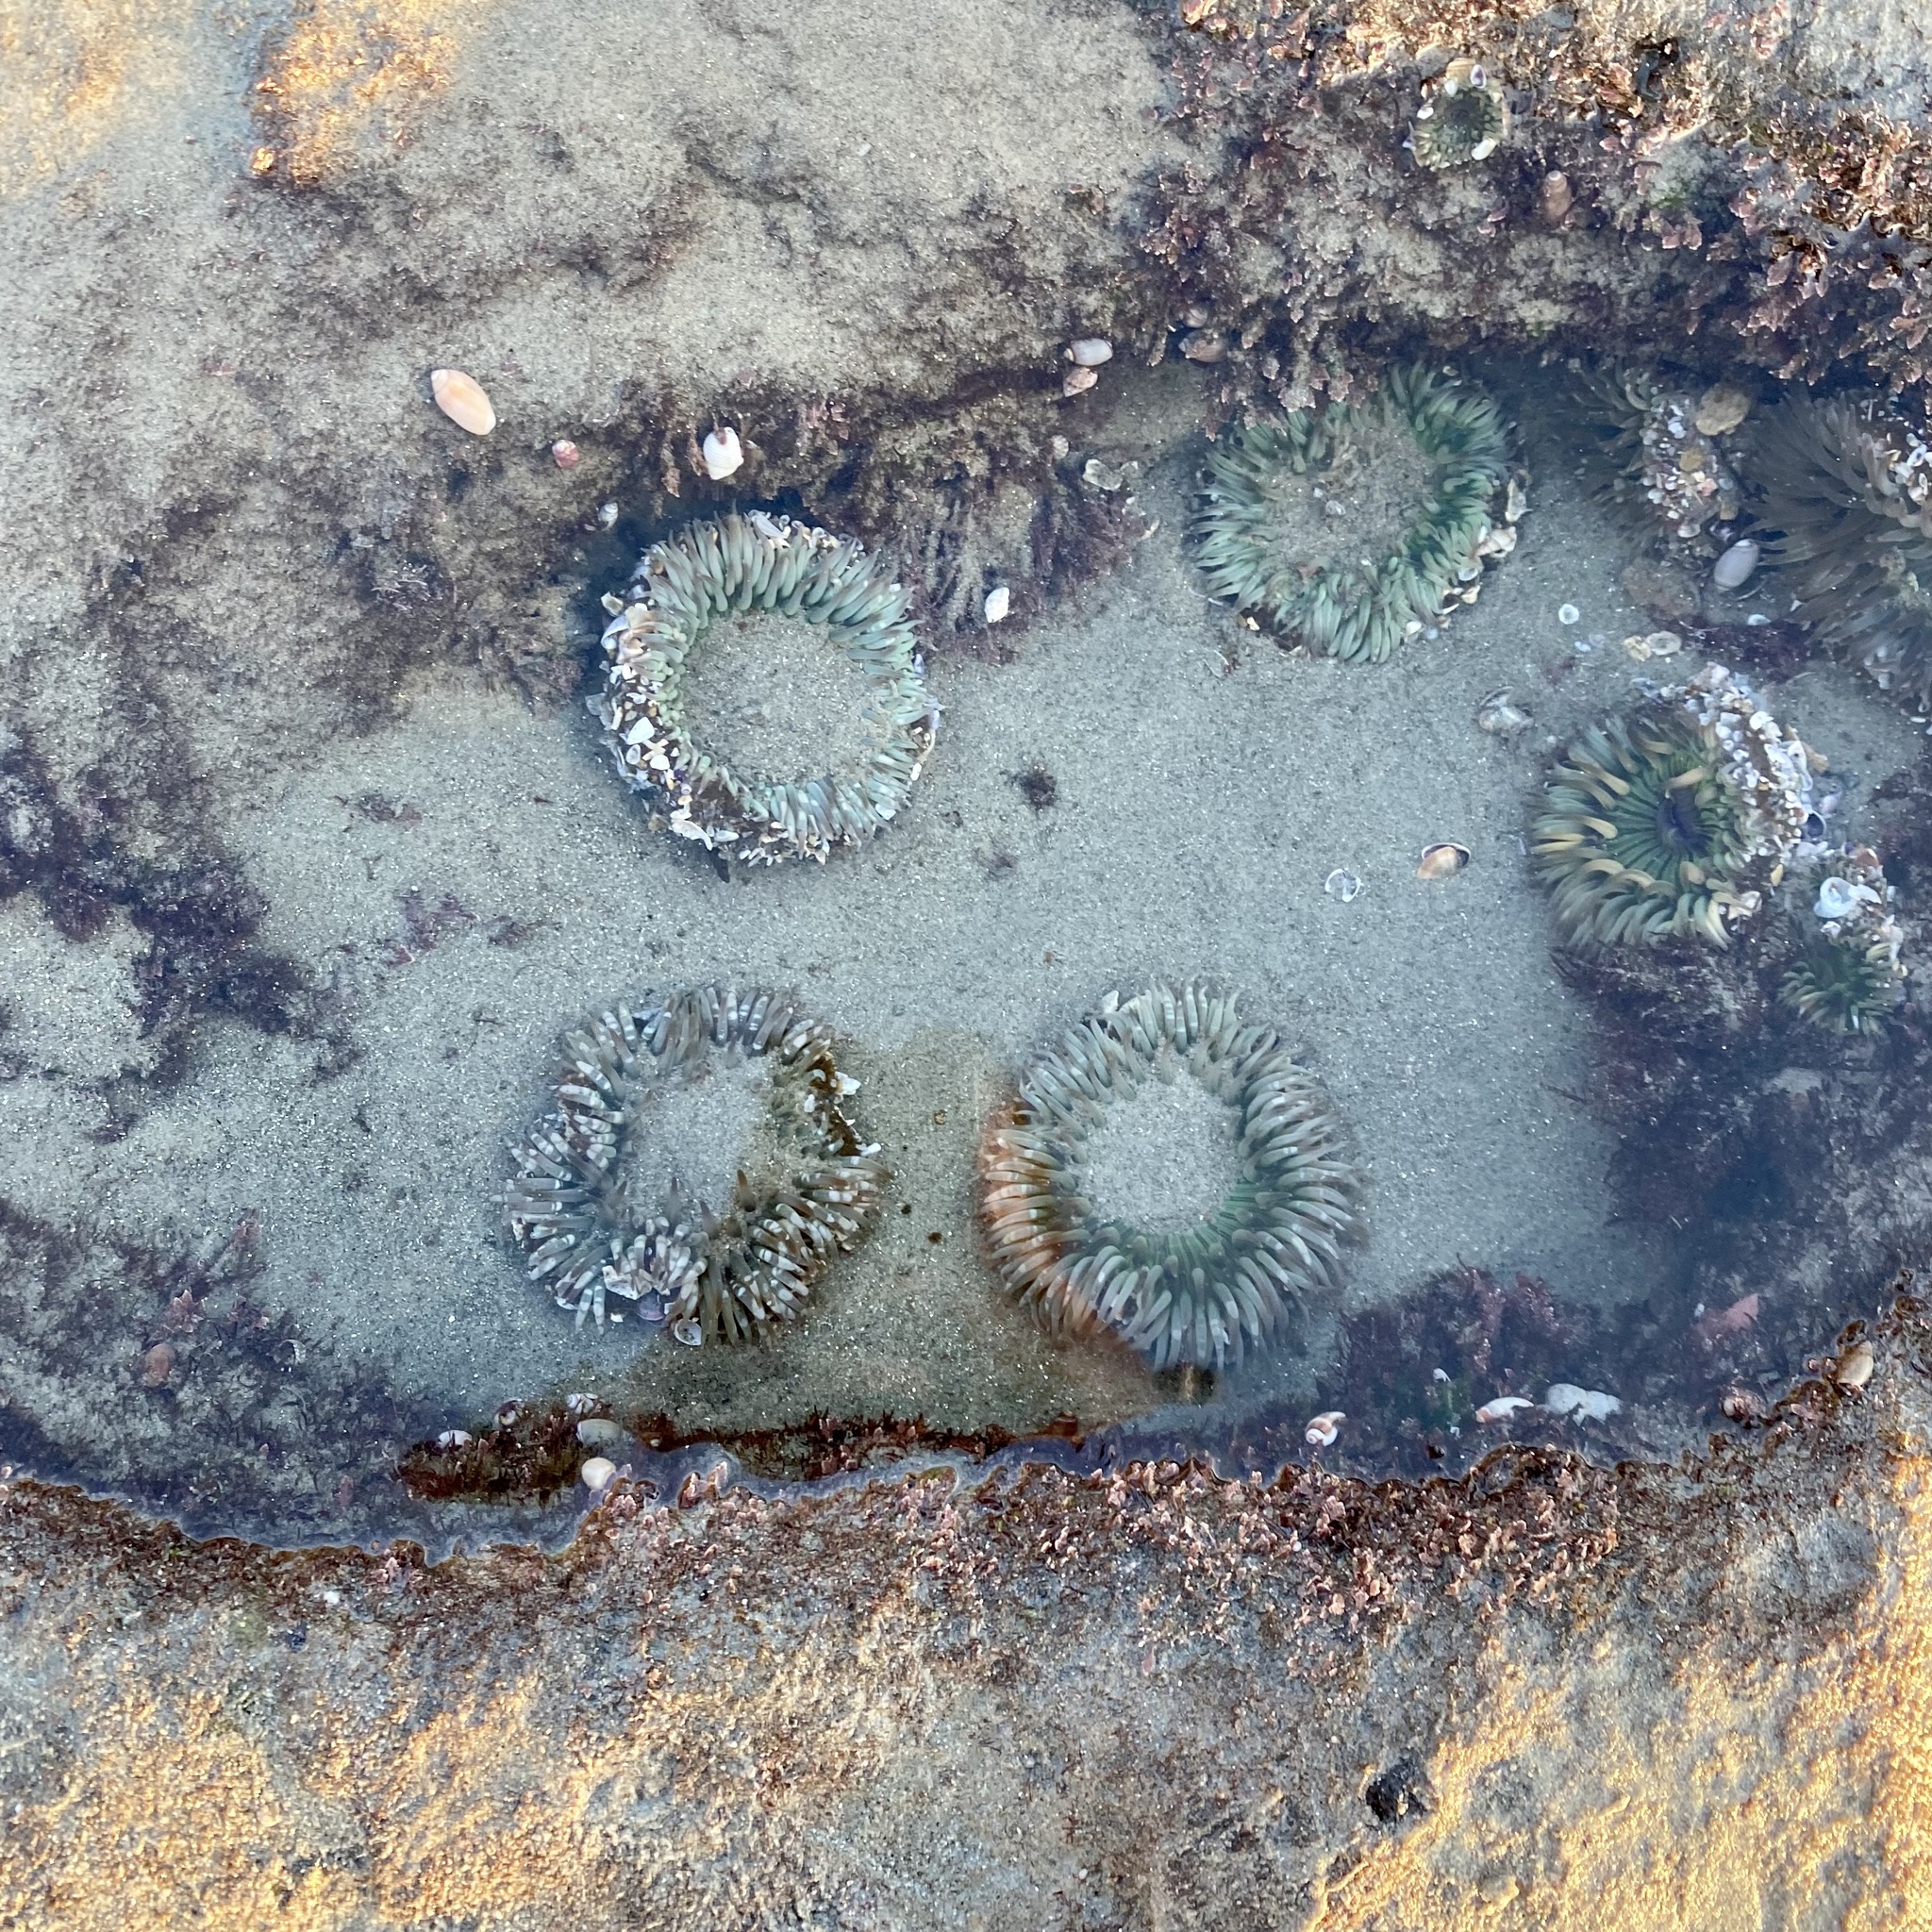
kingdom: Animalia
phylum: Cnidaria
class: Anthozoa
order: Actiniaria
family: Actiniidae
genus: Anthopleura
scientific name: Anthopleura sola
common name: Sun anemone
